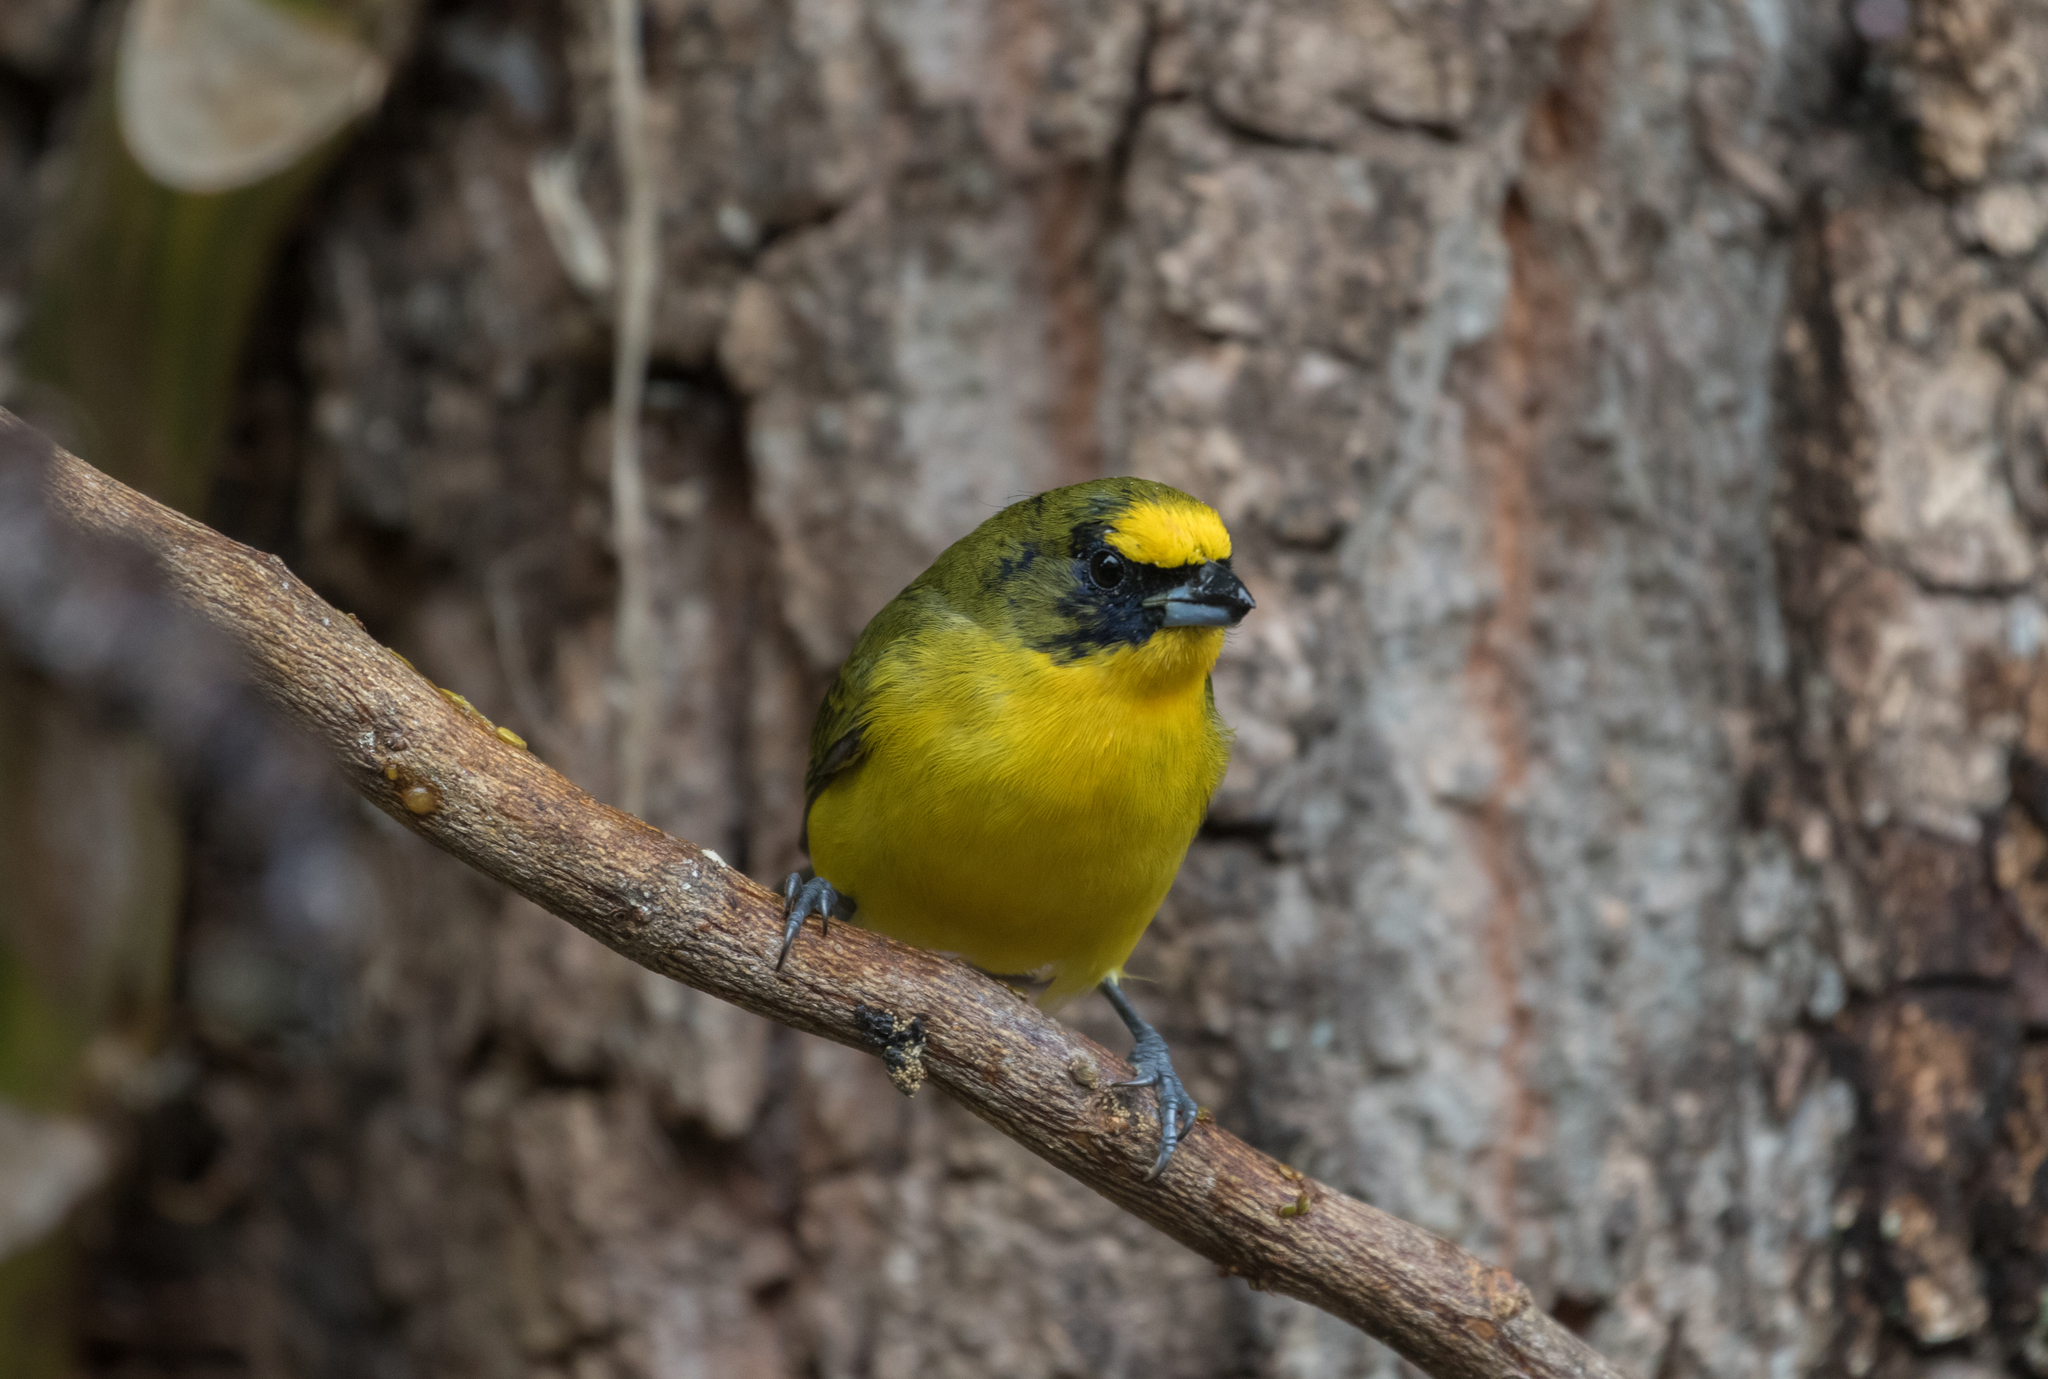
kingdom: Animalia
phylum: Chordata
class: Aves
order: Passeriformes
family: Fringillidae
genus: Euphonia
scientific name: Euphonia laniirostris
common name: Thick-billed euphonia
